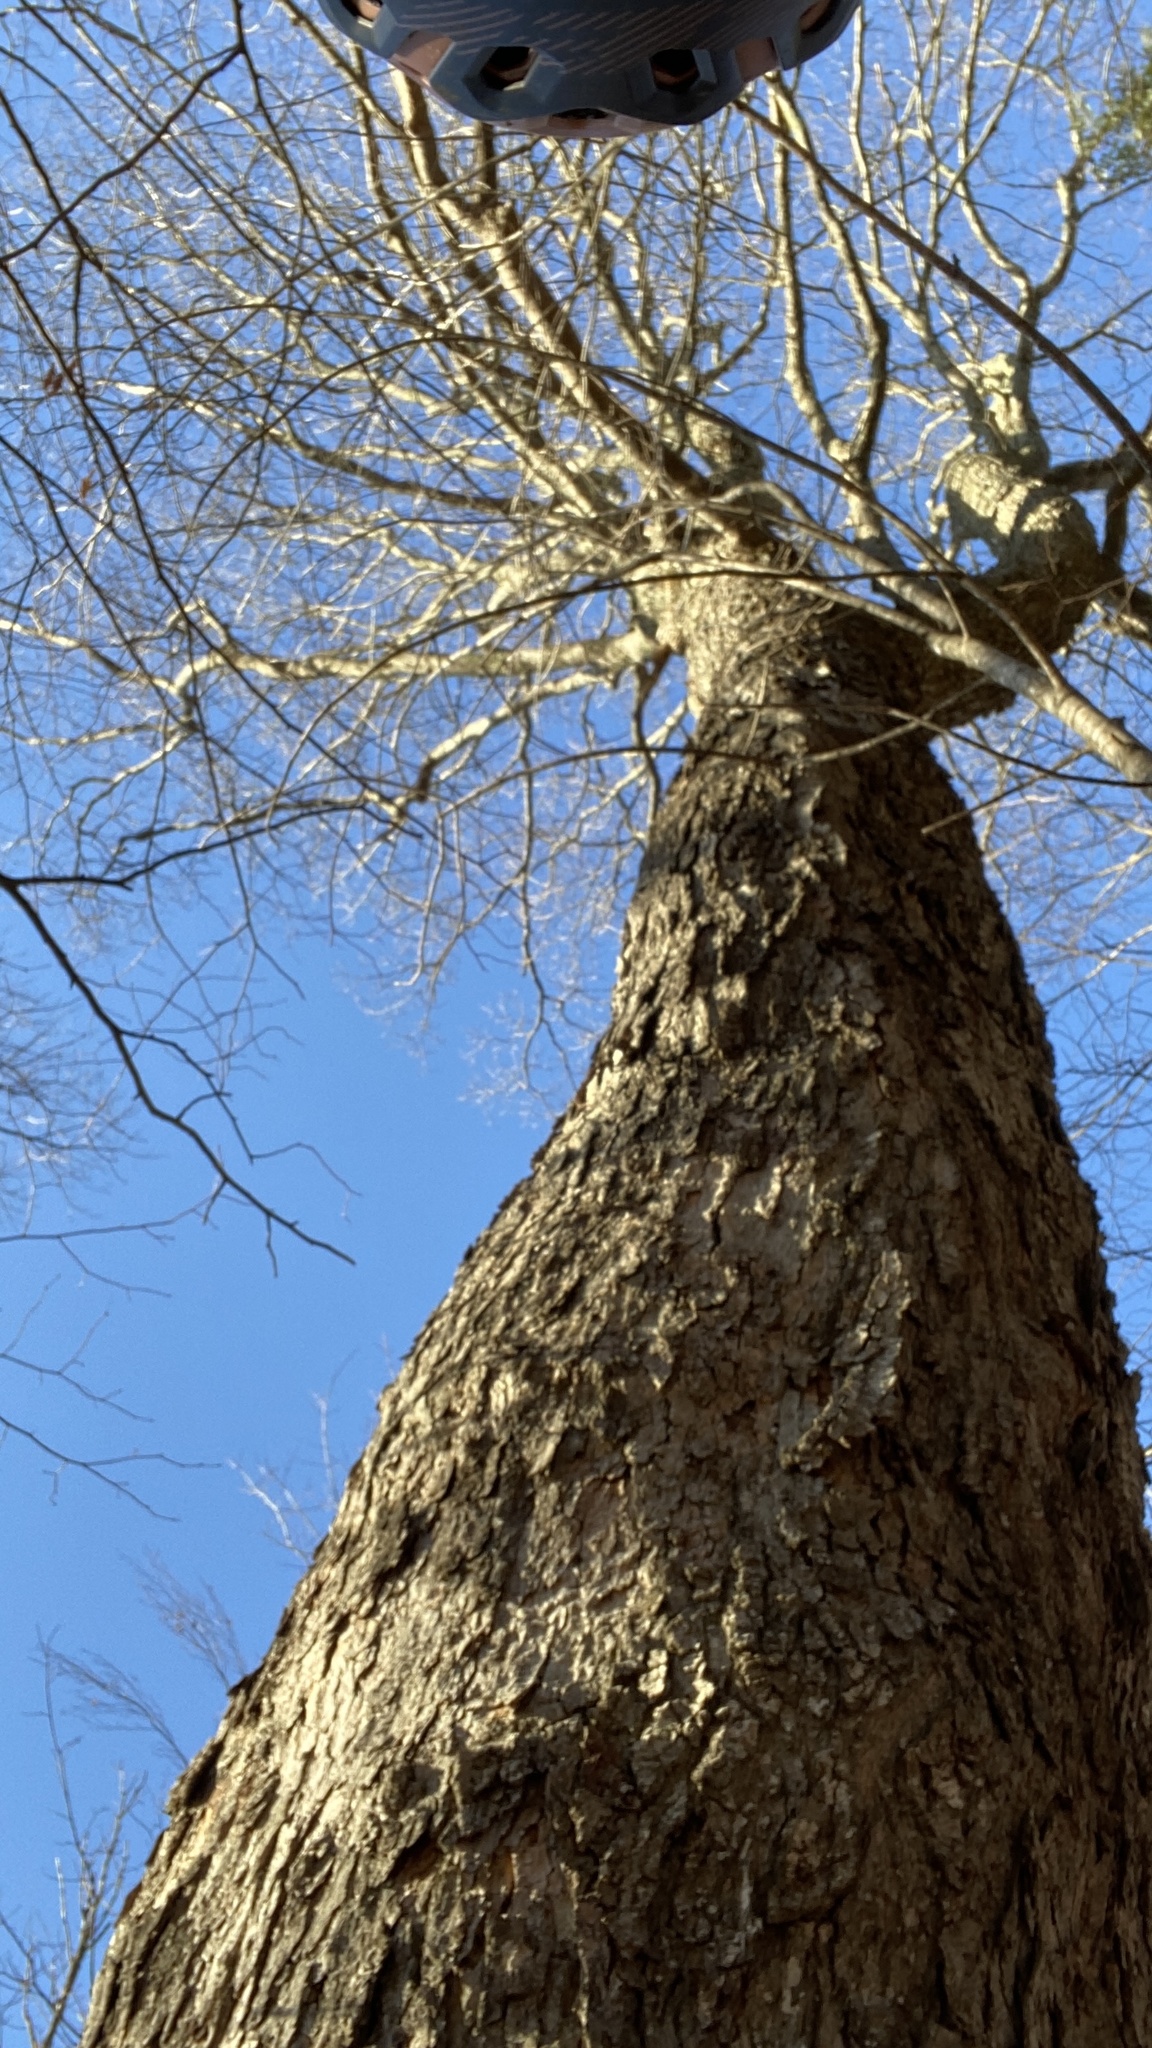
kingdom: Plantae
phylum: Tracheophyta
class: Magnoliopsida
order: Sapindales
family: Sapindaceae
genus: Acer
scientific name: Acer saccharum
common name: Sugar maple
